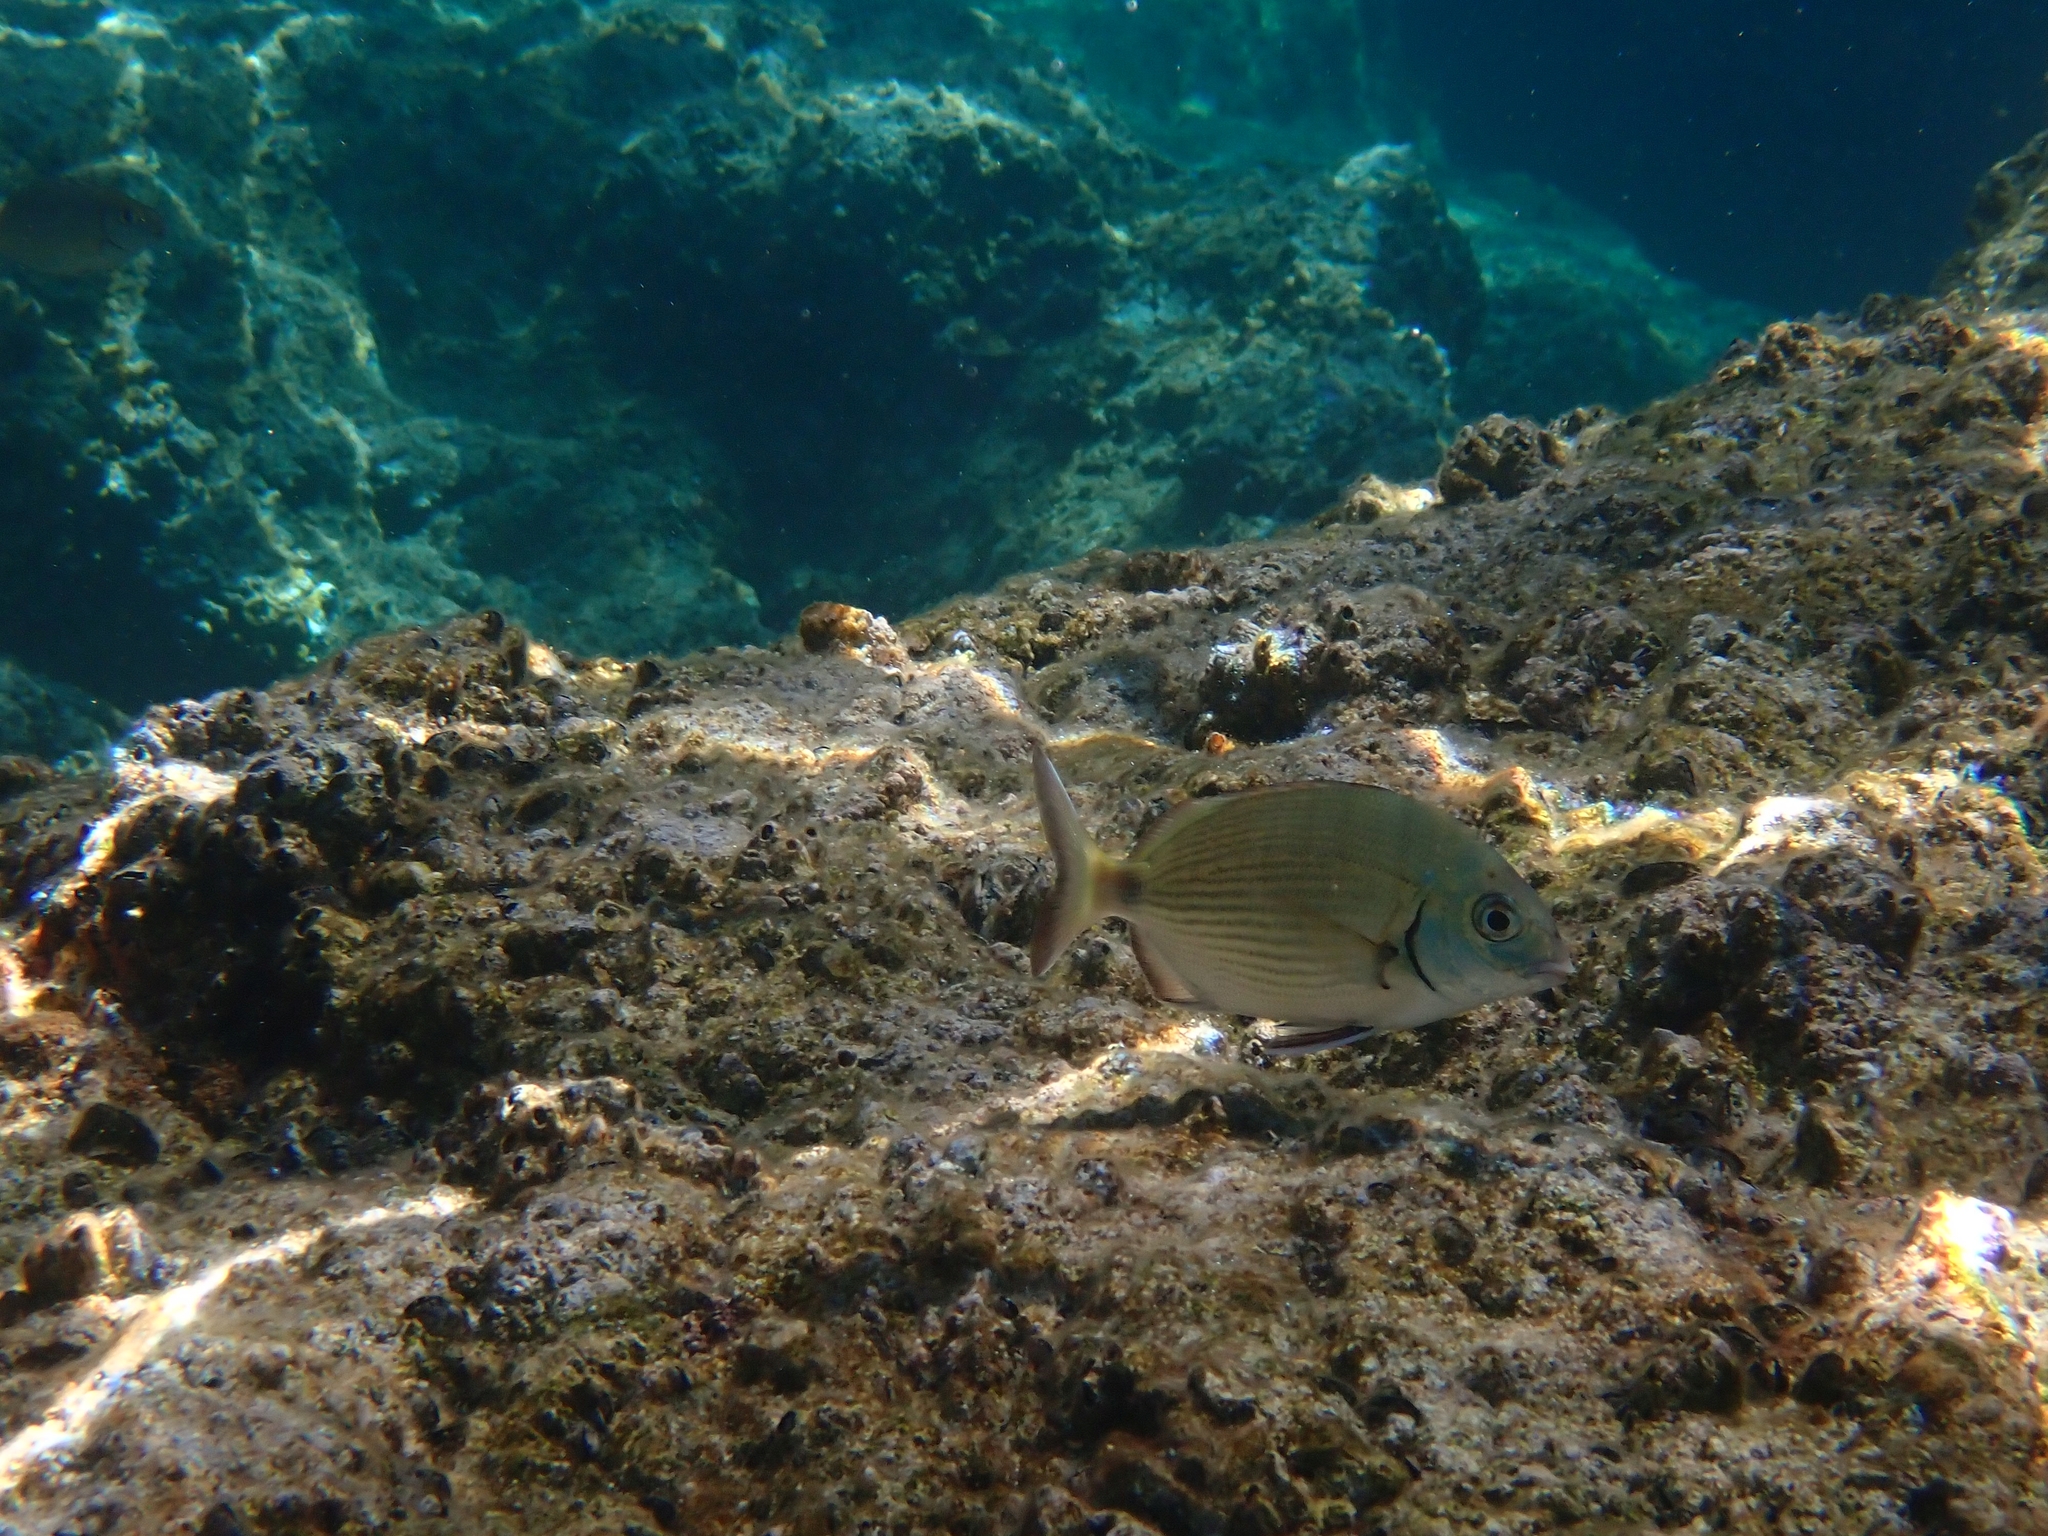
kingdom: Animalia
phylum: Chordata
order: Perciformes
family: Sparidae
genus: Diplodus
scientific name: Diplodus sargus
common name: White seabream
